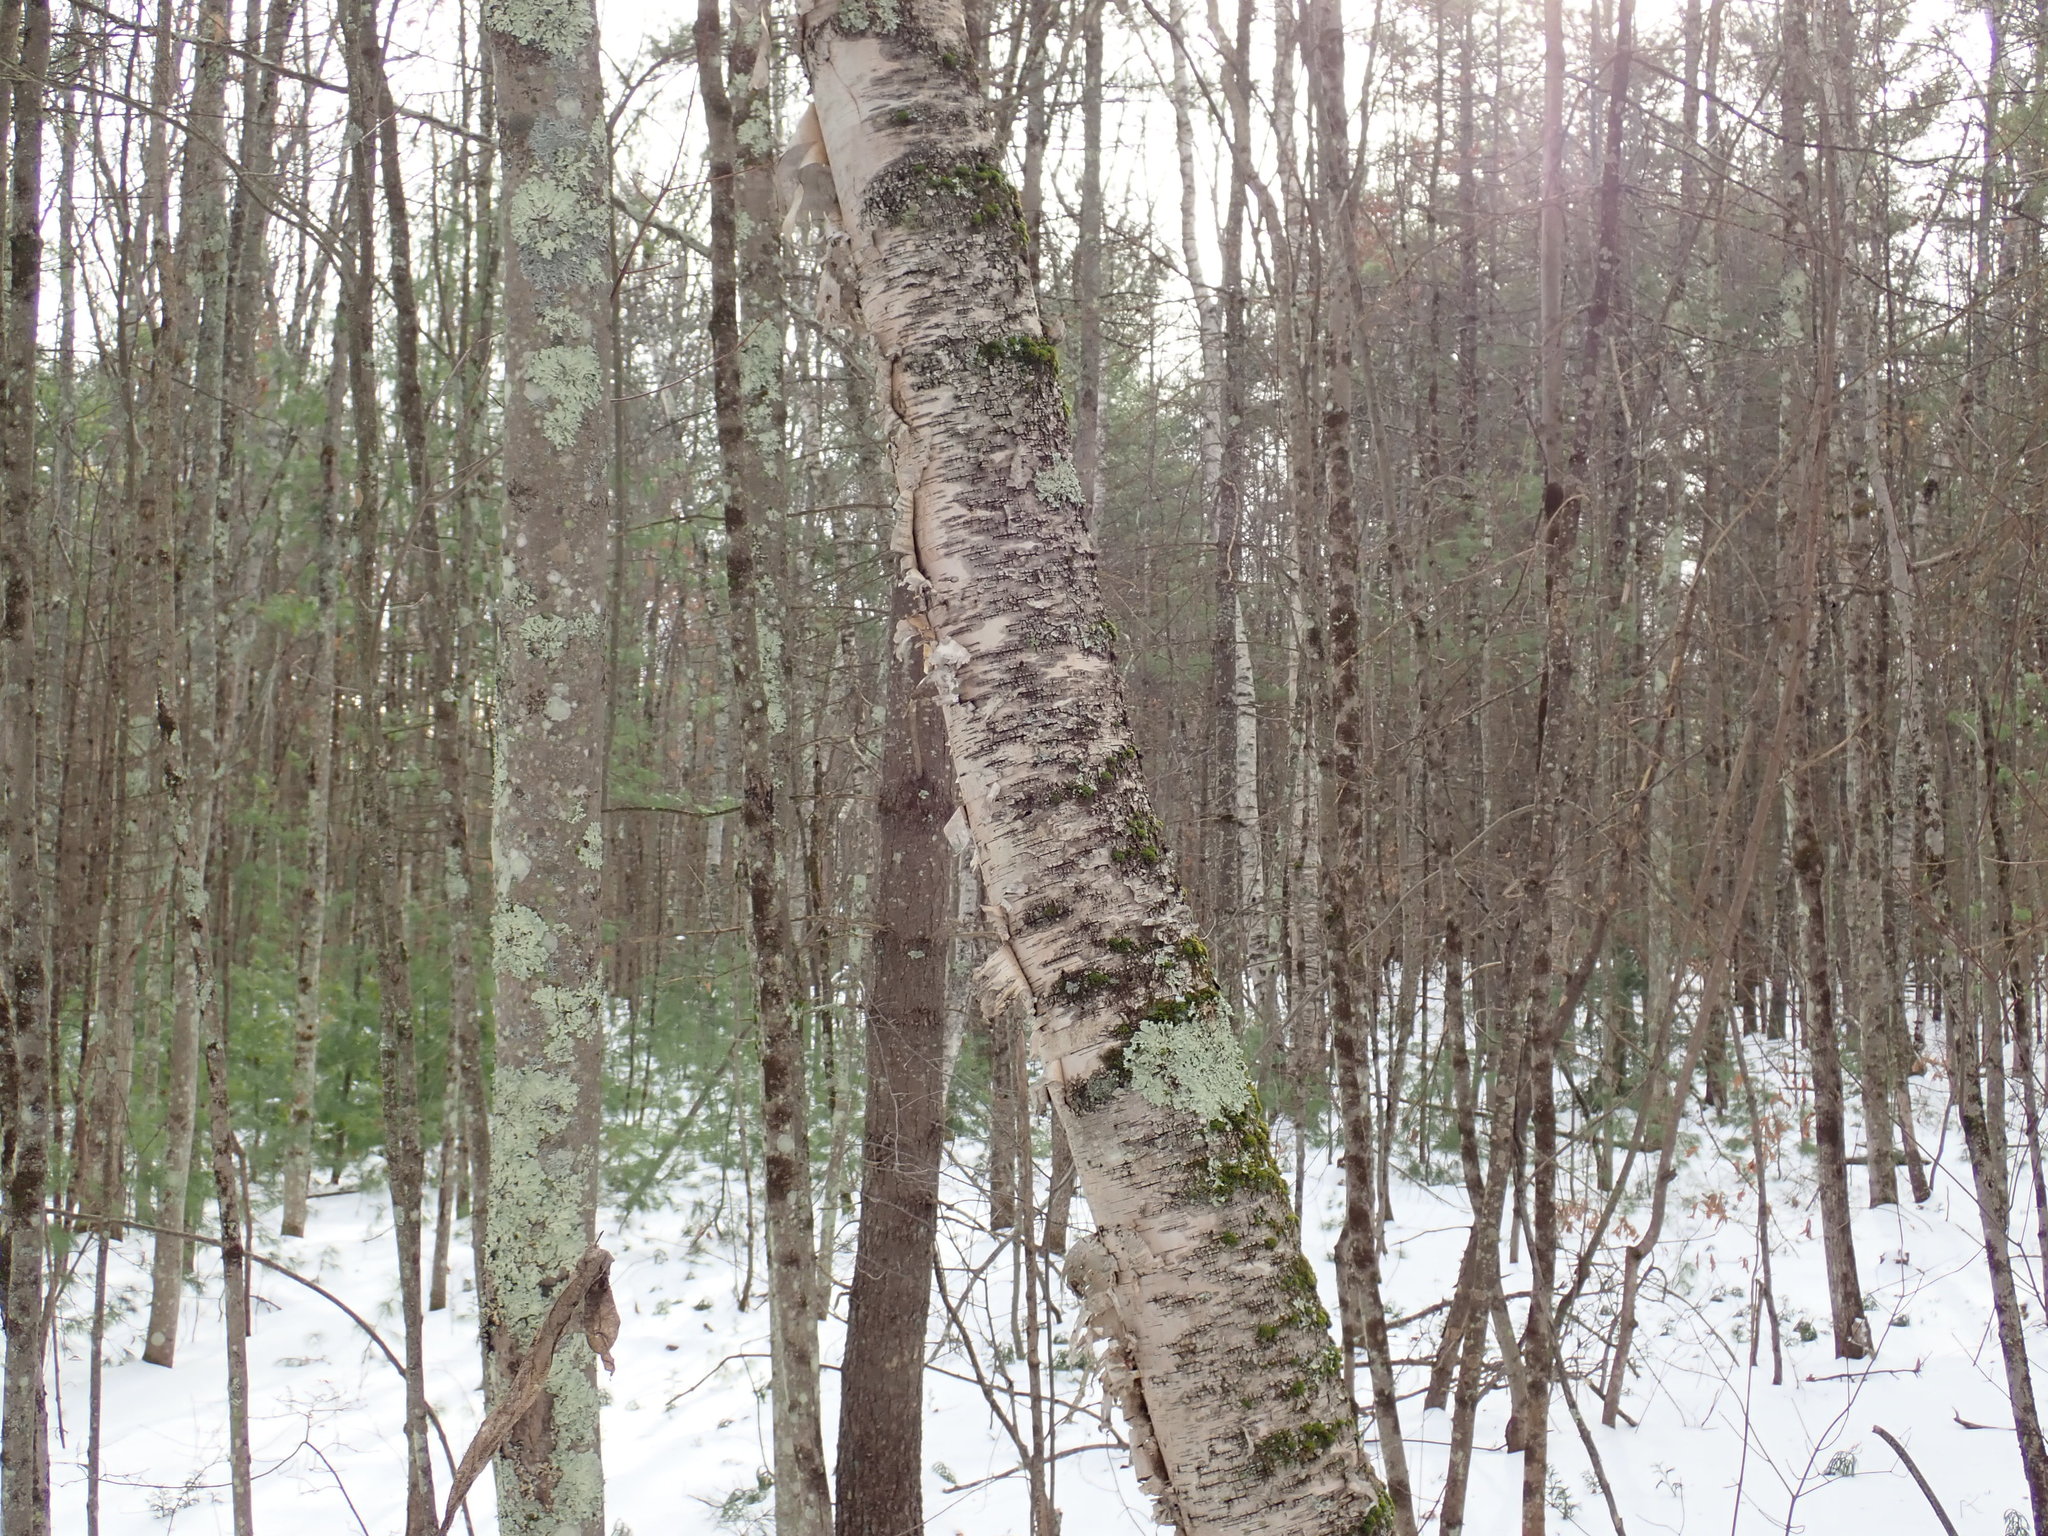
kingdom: Plantae
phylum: Tracheophyta
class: Magnoliopsida
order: Fagales
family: Betulaceae
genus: Betula
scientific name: Betula papyrifera
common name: Paper birch
